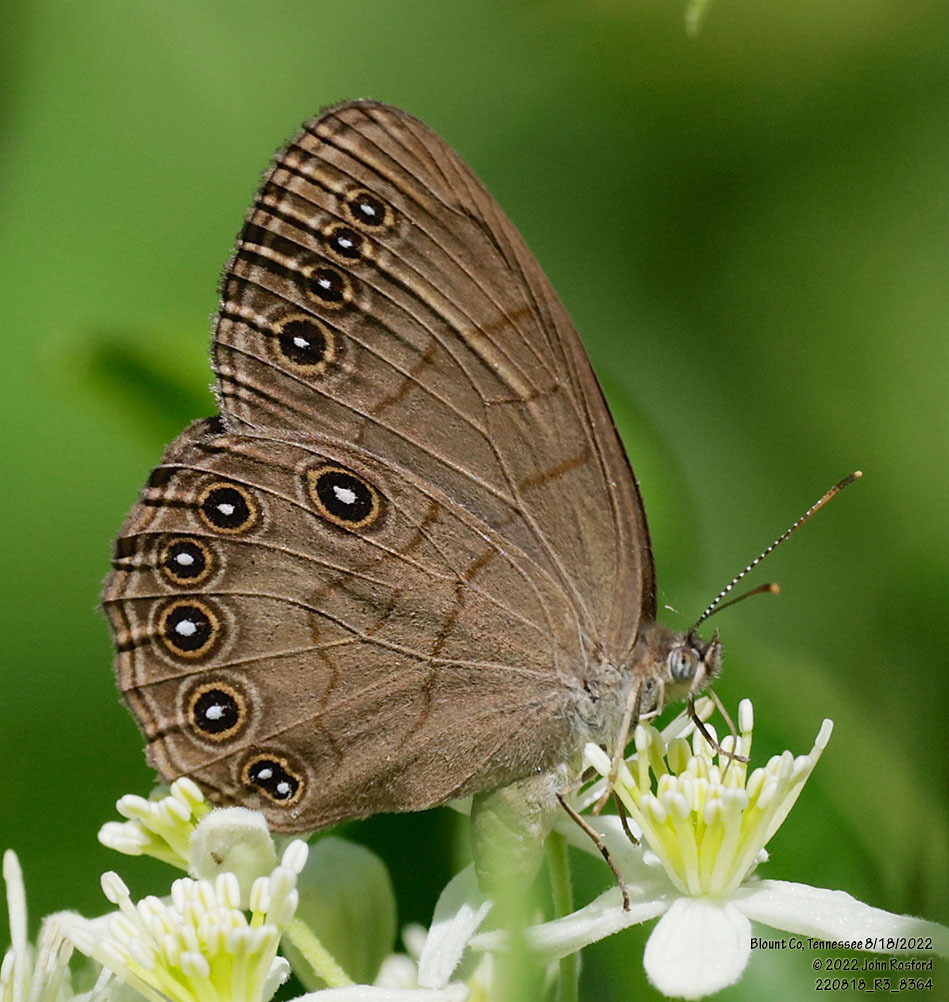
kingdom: Animalia
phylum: Arthropoda
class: Insecta
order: Lepidoptera
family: Nymphalidae
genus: Lethe
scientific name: Lethe eurydice
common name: Eyed brown
